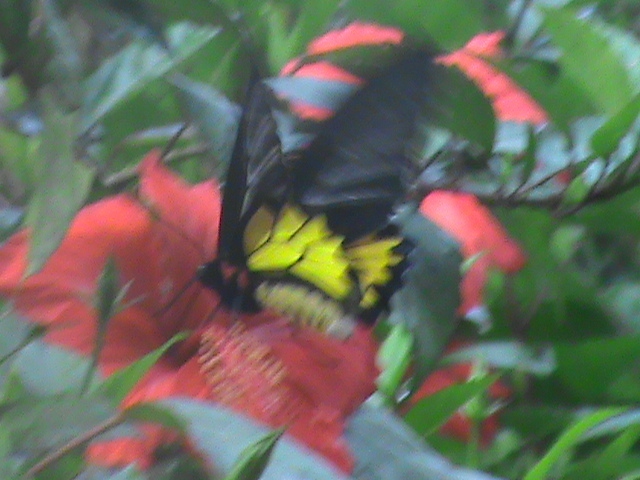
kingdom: Animalia
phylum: Arthropoda
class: Insecta
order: Lepidoptera
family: Papilionidae
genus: Troides
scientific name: Troides minos
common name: Malabar birdwing
